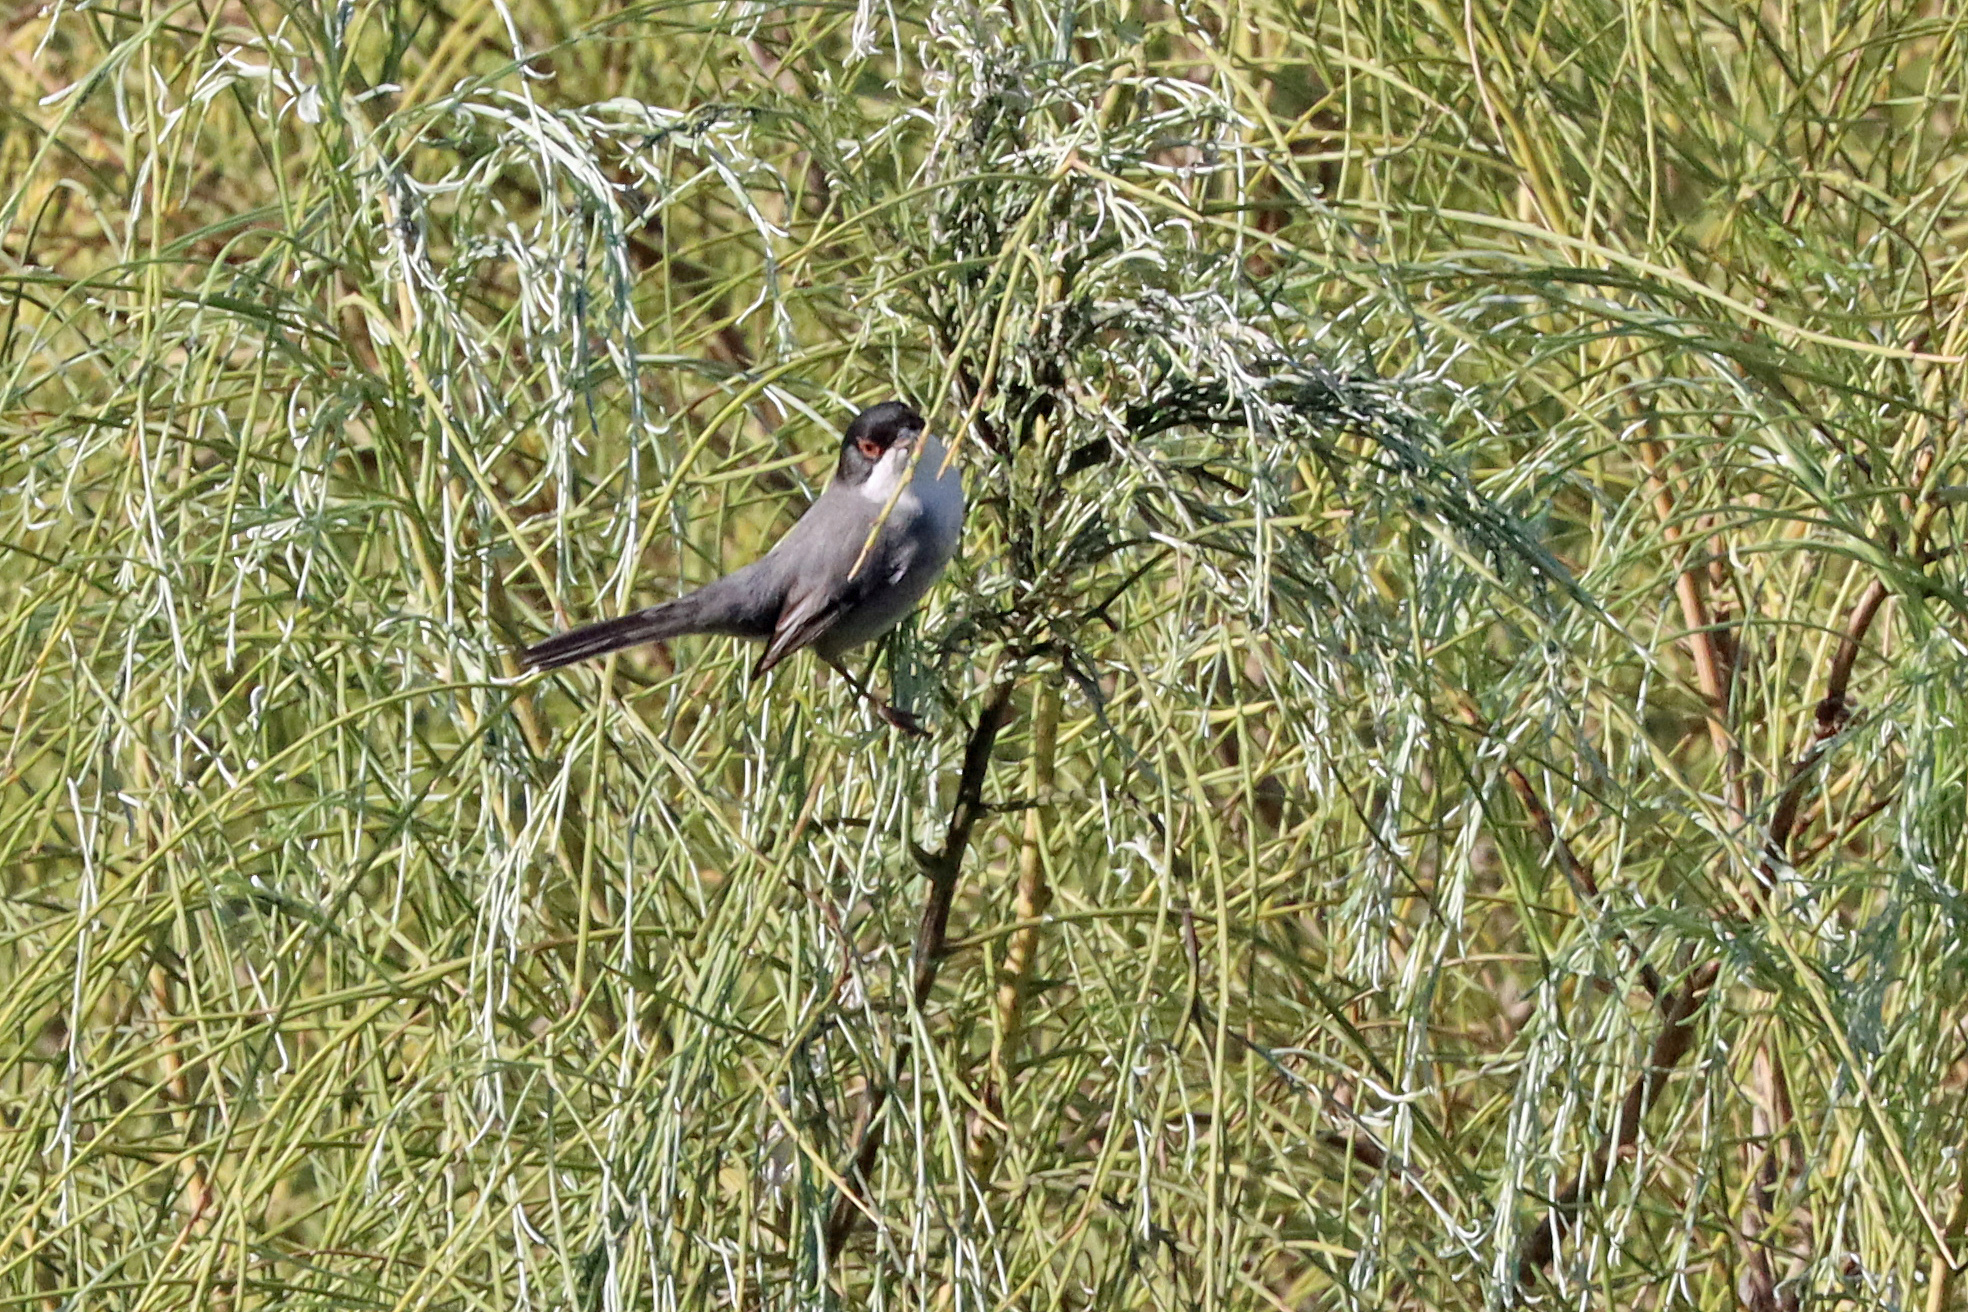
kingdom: Animalia
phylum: Chordata
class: Aves
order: Passeriformes
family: Sylviidae
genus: Curruca
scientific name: Curruca melanocephala
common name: Sardinian warbler
